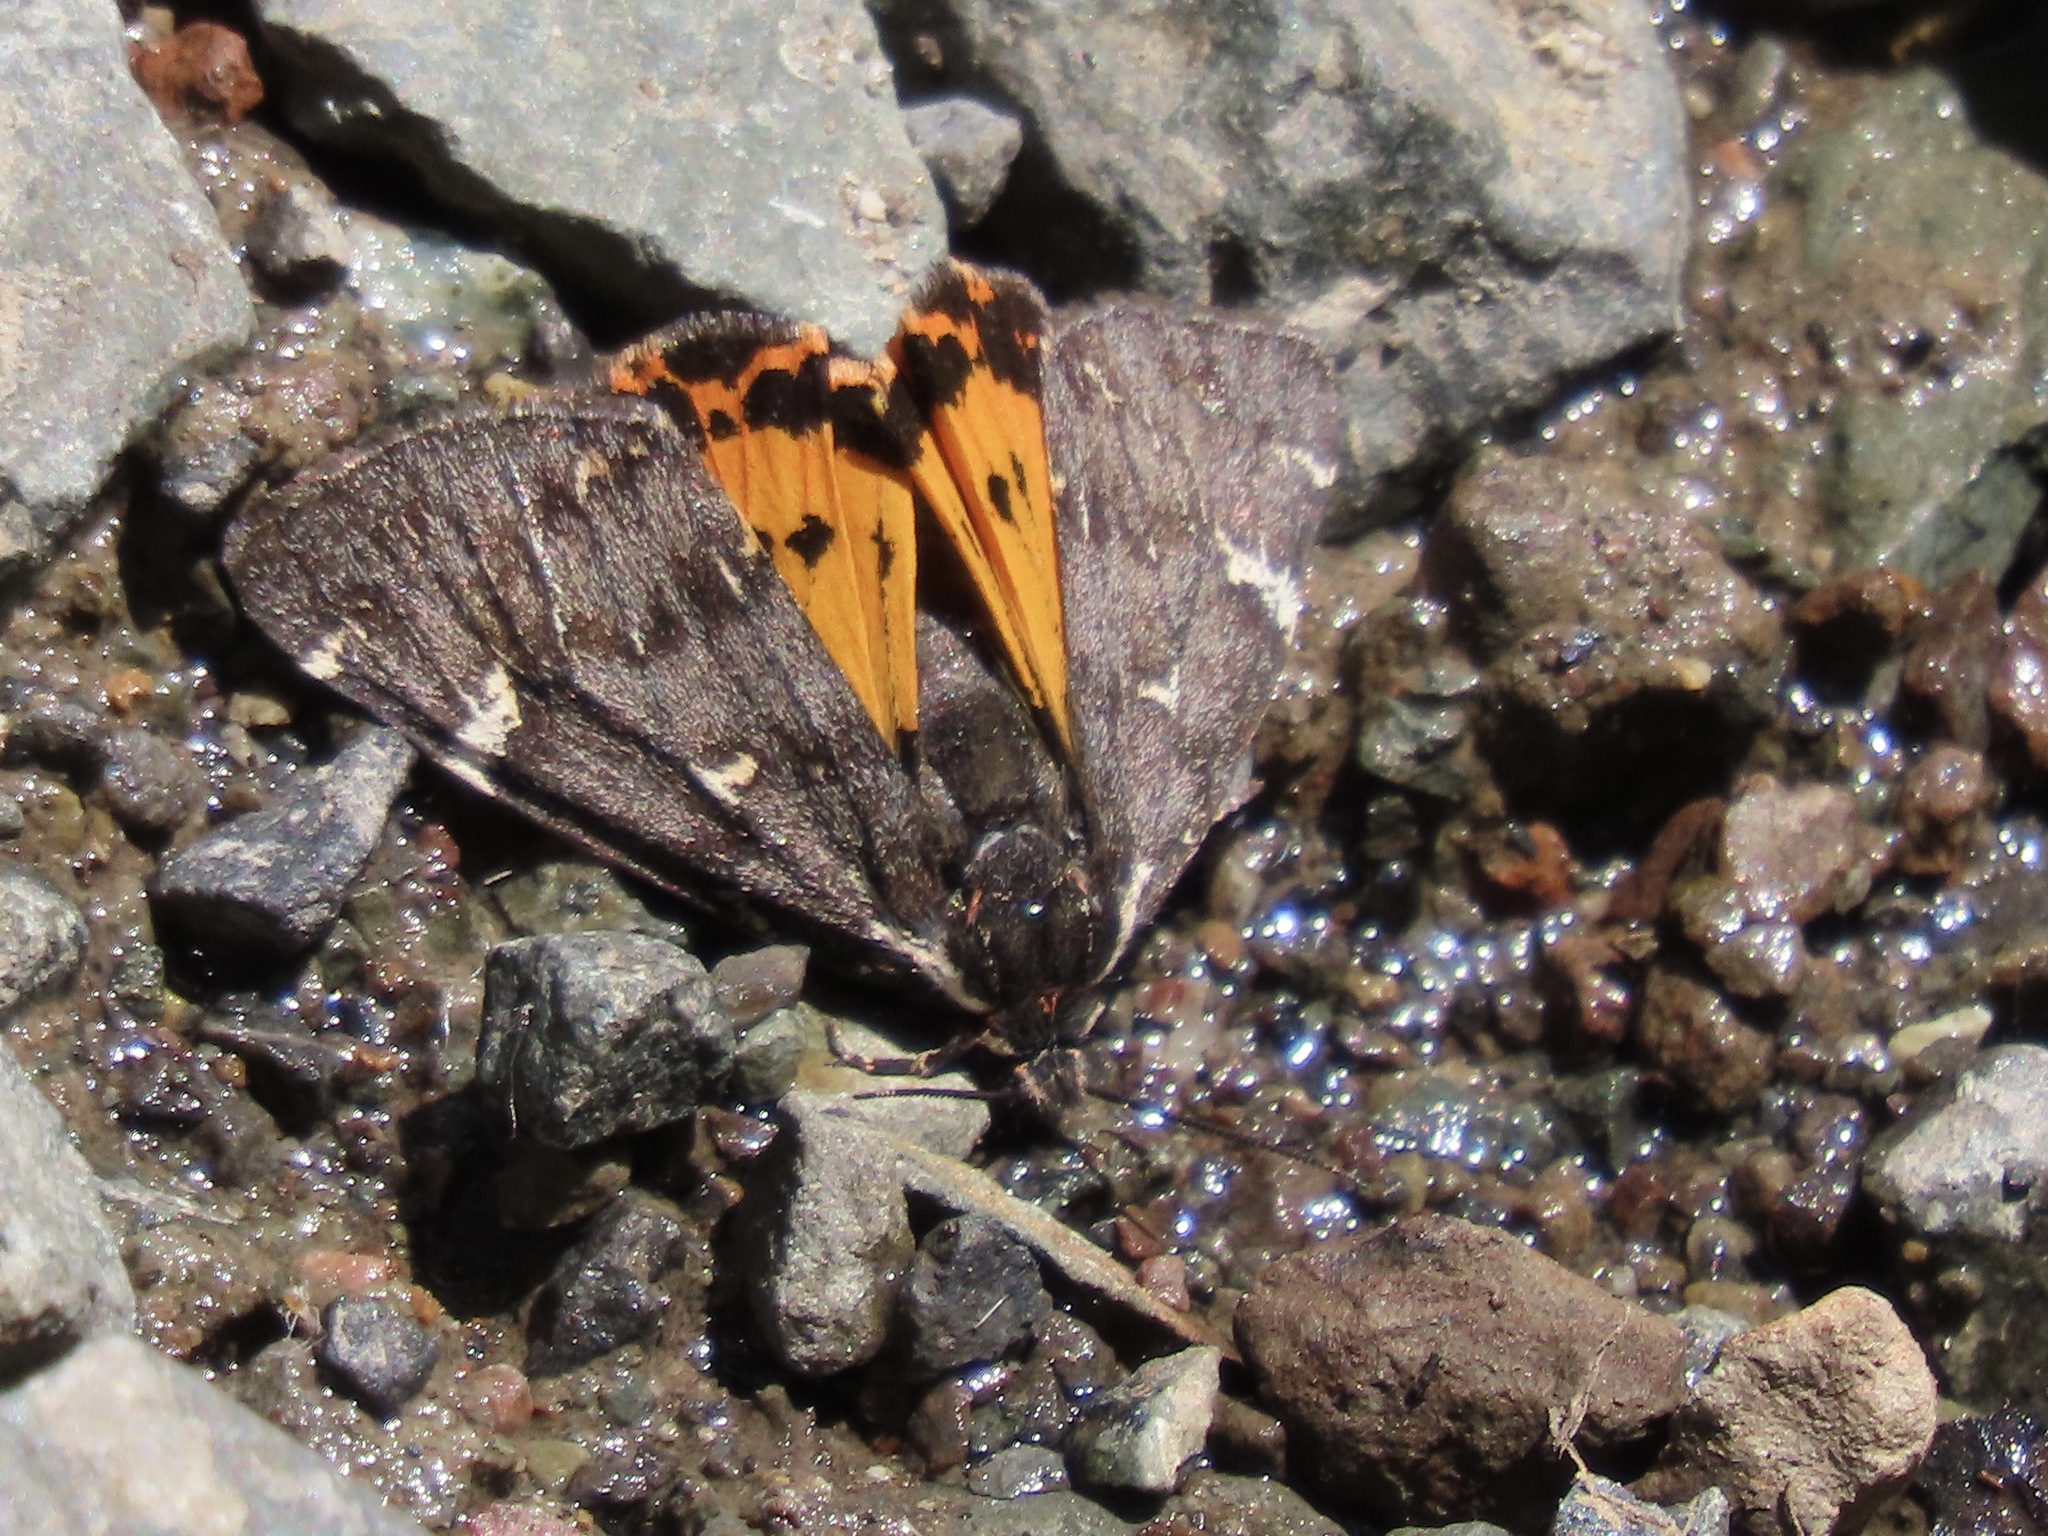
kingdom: Animalia
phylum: Arthropoda
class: Insecta
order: Lepidoptera
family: Erebidae
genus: Leptarctia
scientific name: Leptarctia californiae
